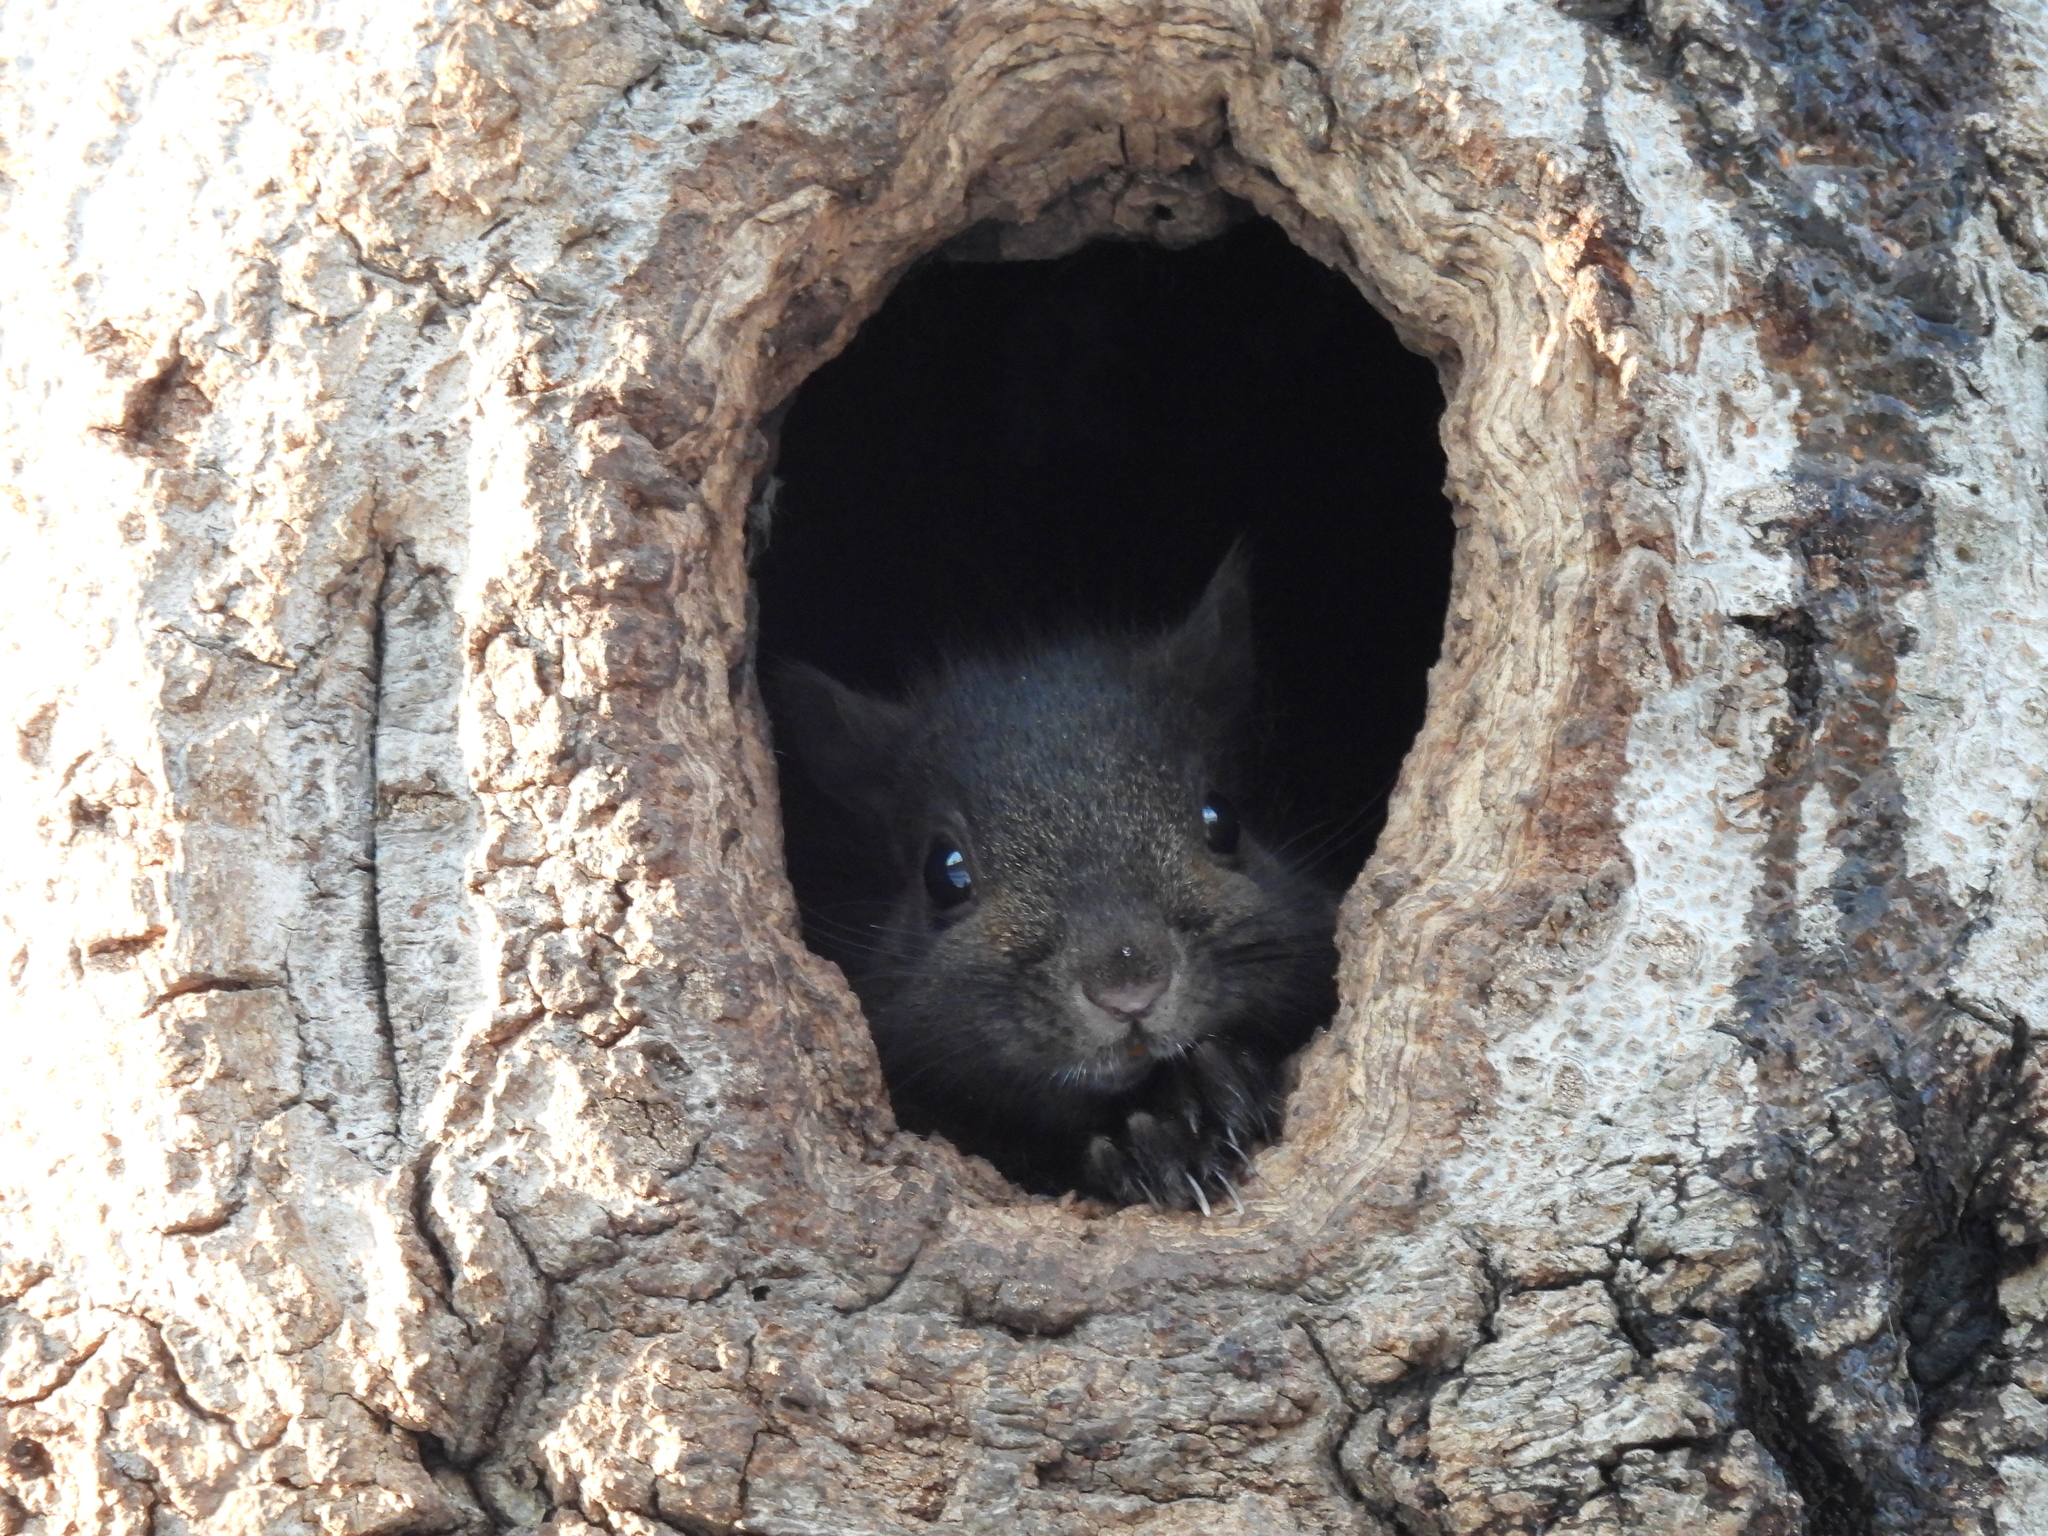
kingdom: Animalia
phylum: Chordata
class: Mammalia
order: Rodentia
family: Sciuridae
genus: Sciurus
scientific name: Sciurus carolinensis
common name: Eastern gray squirrel
